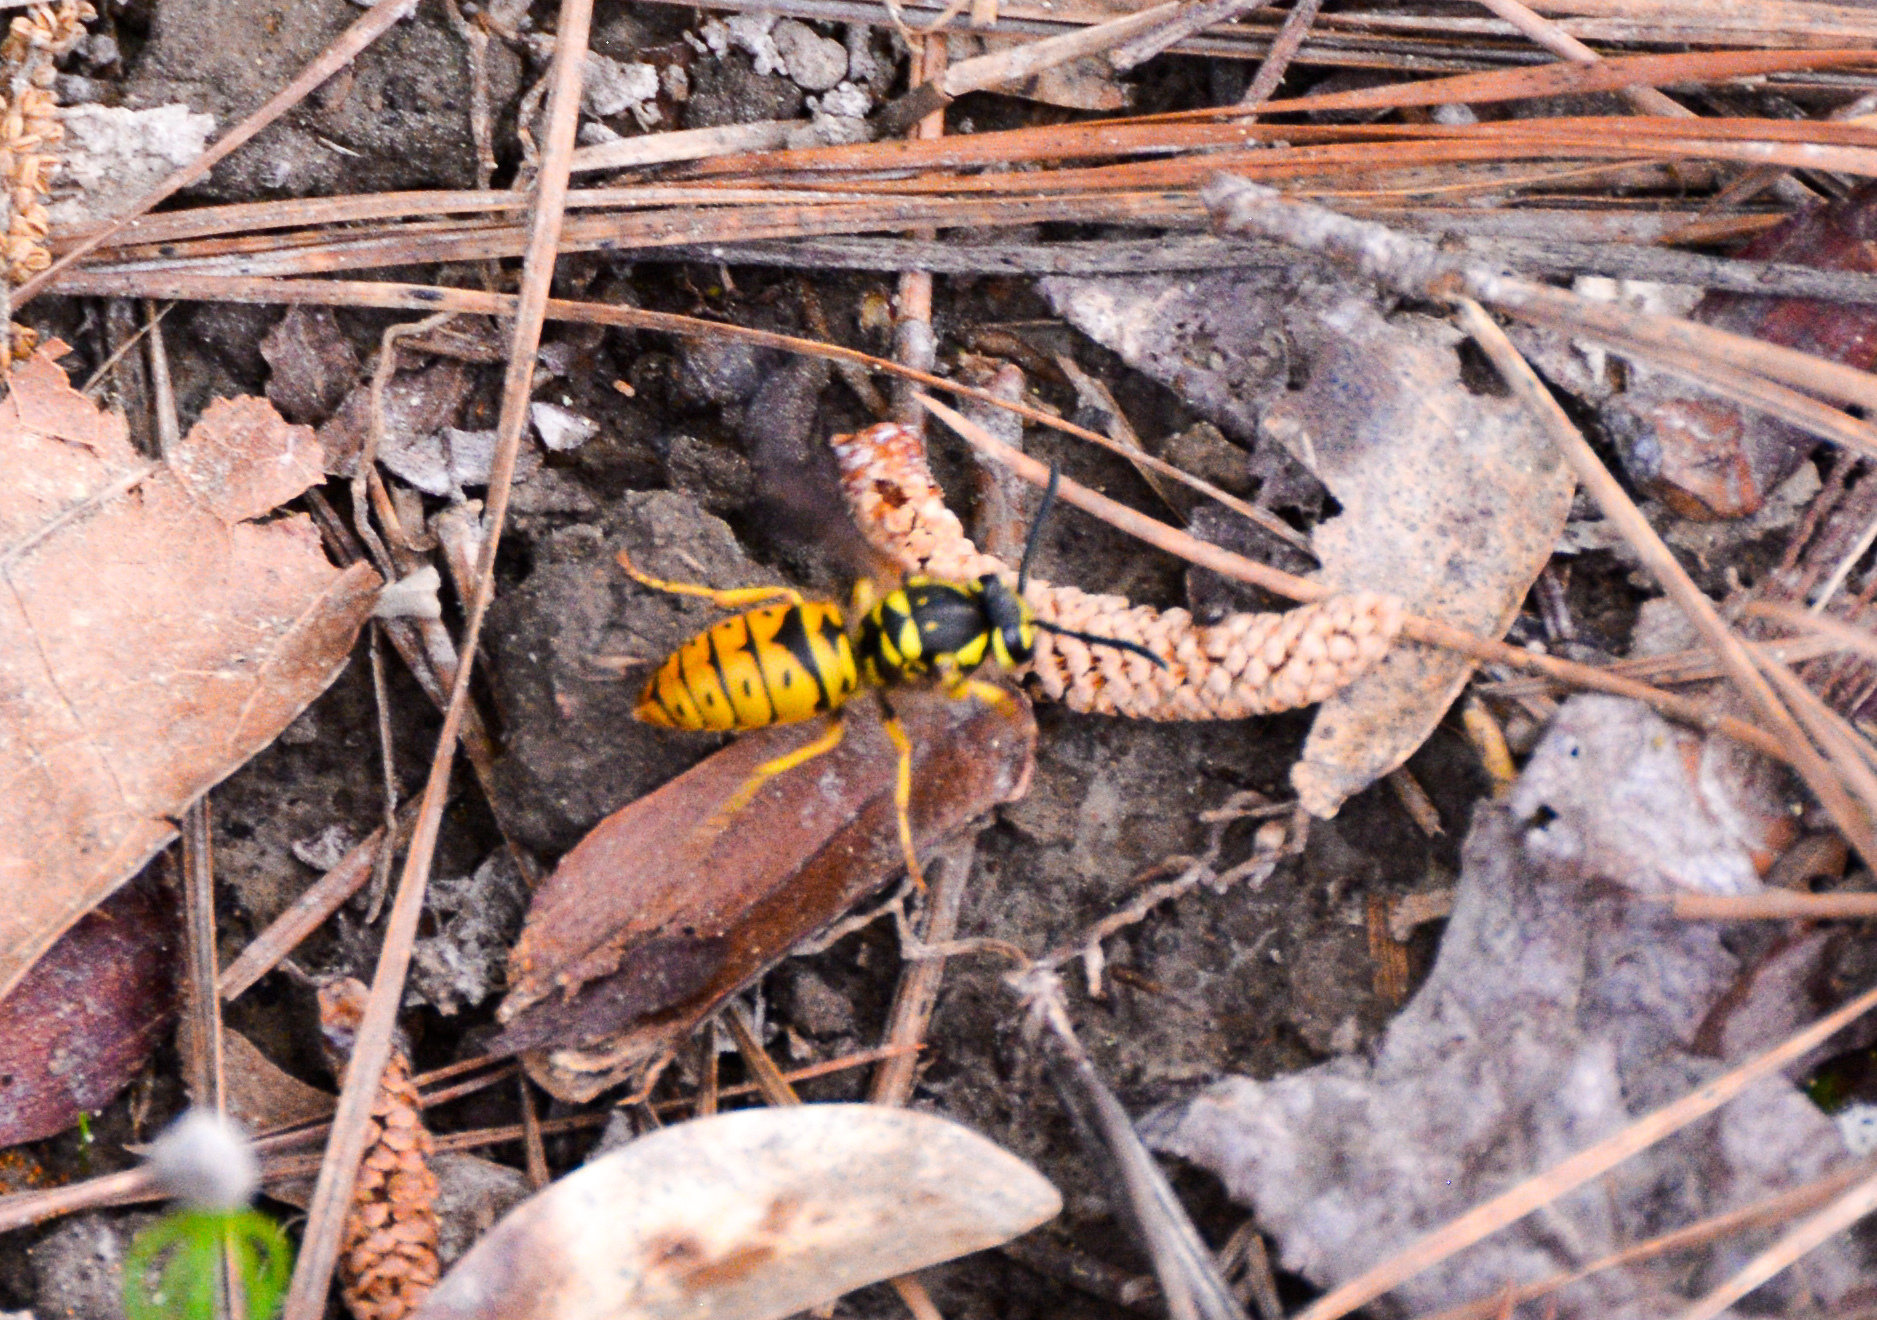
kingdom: Animalia
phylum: Arthropoda
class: Insecta
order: Hymenoptera
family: Vespidae
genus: Vespula
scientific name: Vespula maculifrons
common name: Eastern yellowjacket
